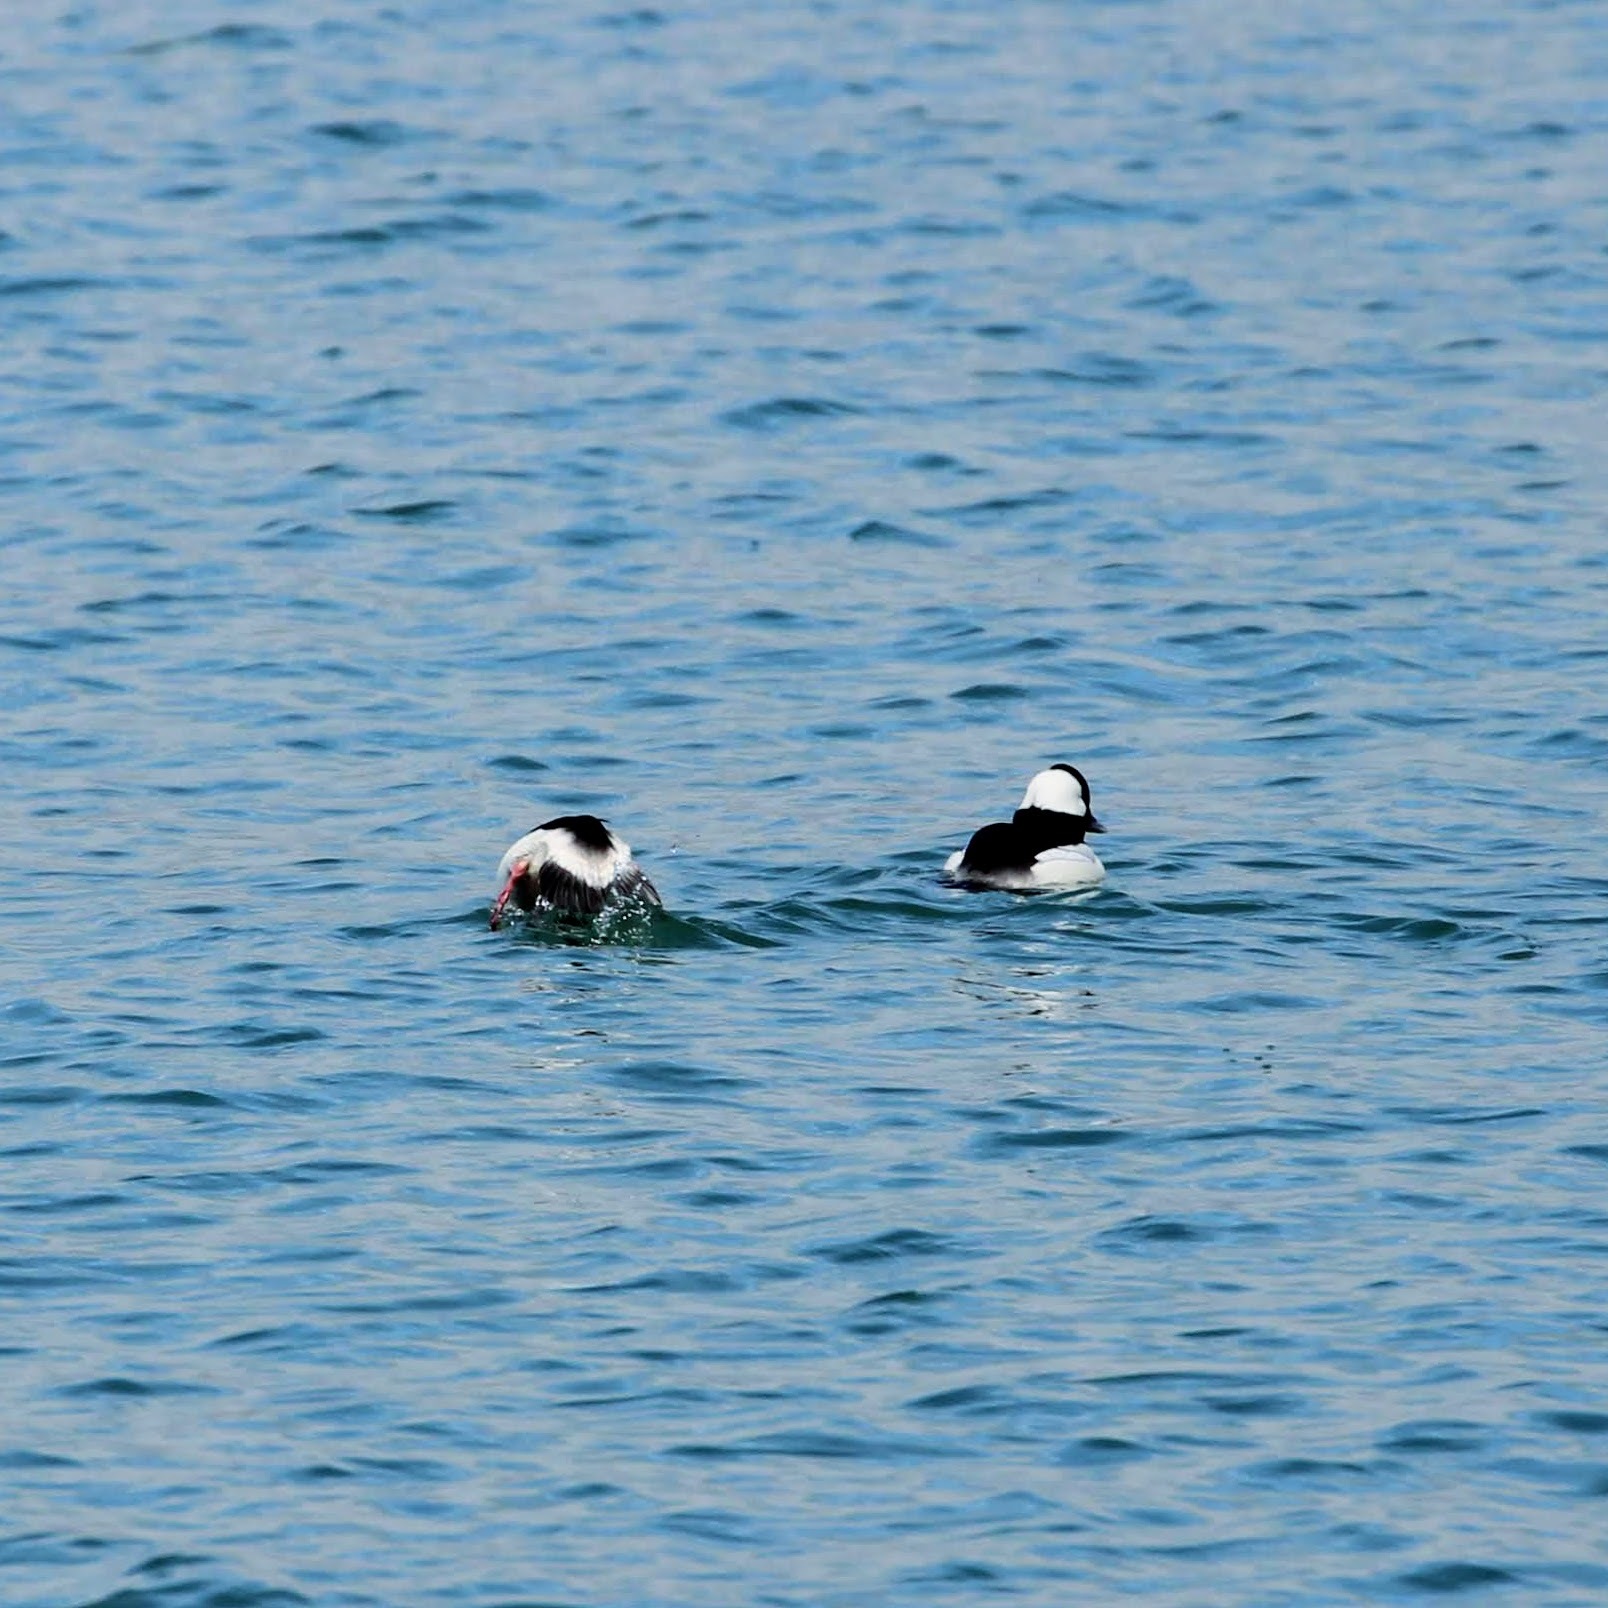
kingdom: Animalia
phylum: Chordata
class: Aves
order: Anseriformes
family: Anatidae
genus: Bucephala
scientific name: Bucephala albeola
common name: Bufflehead
